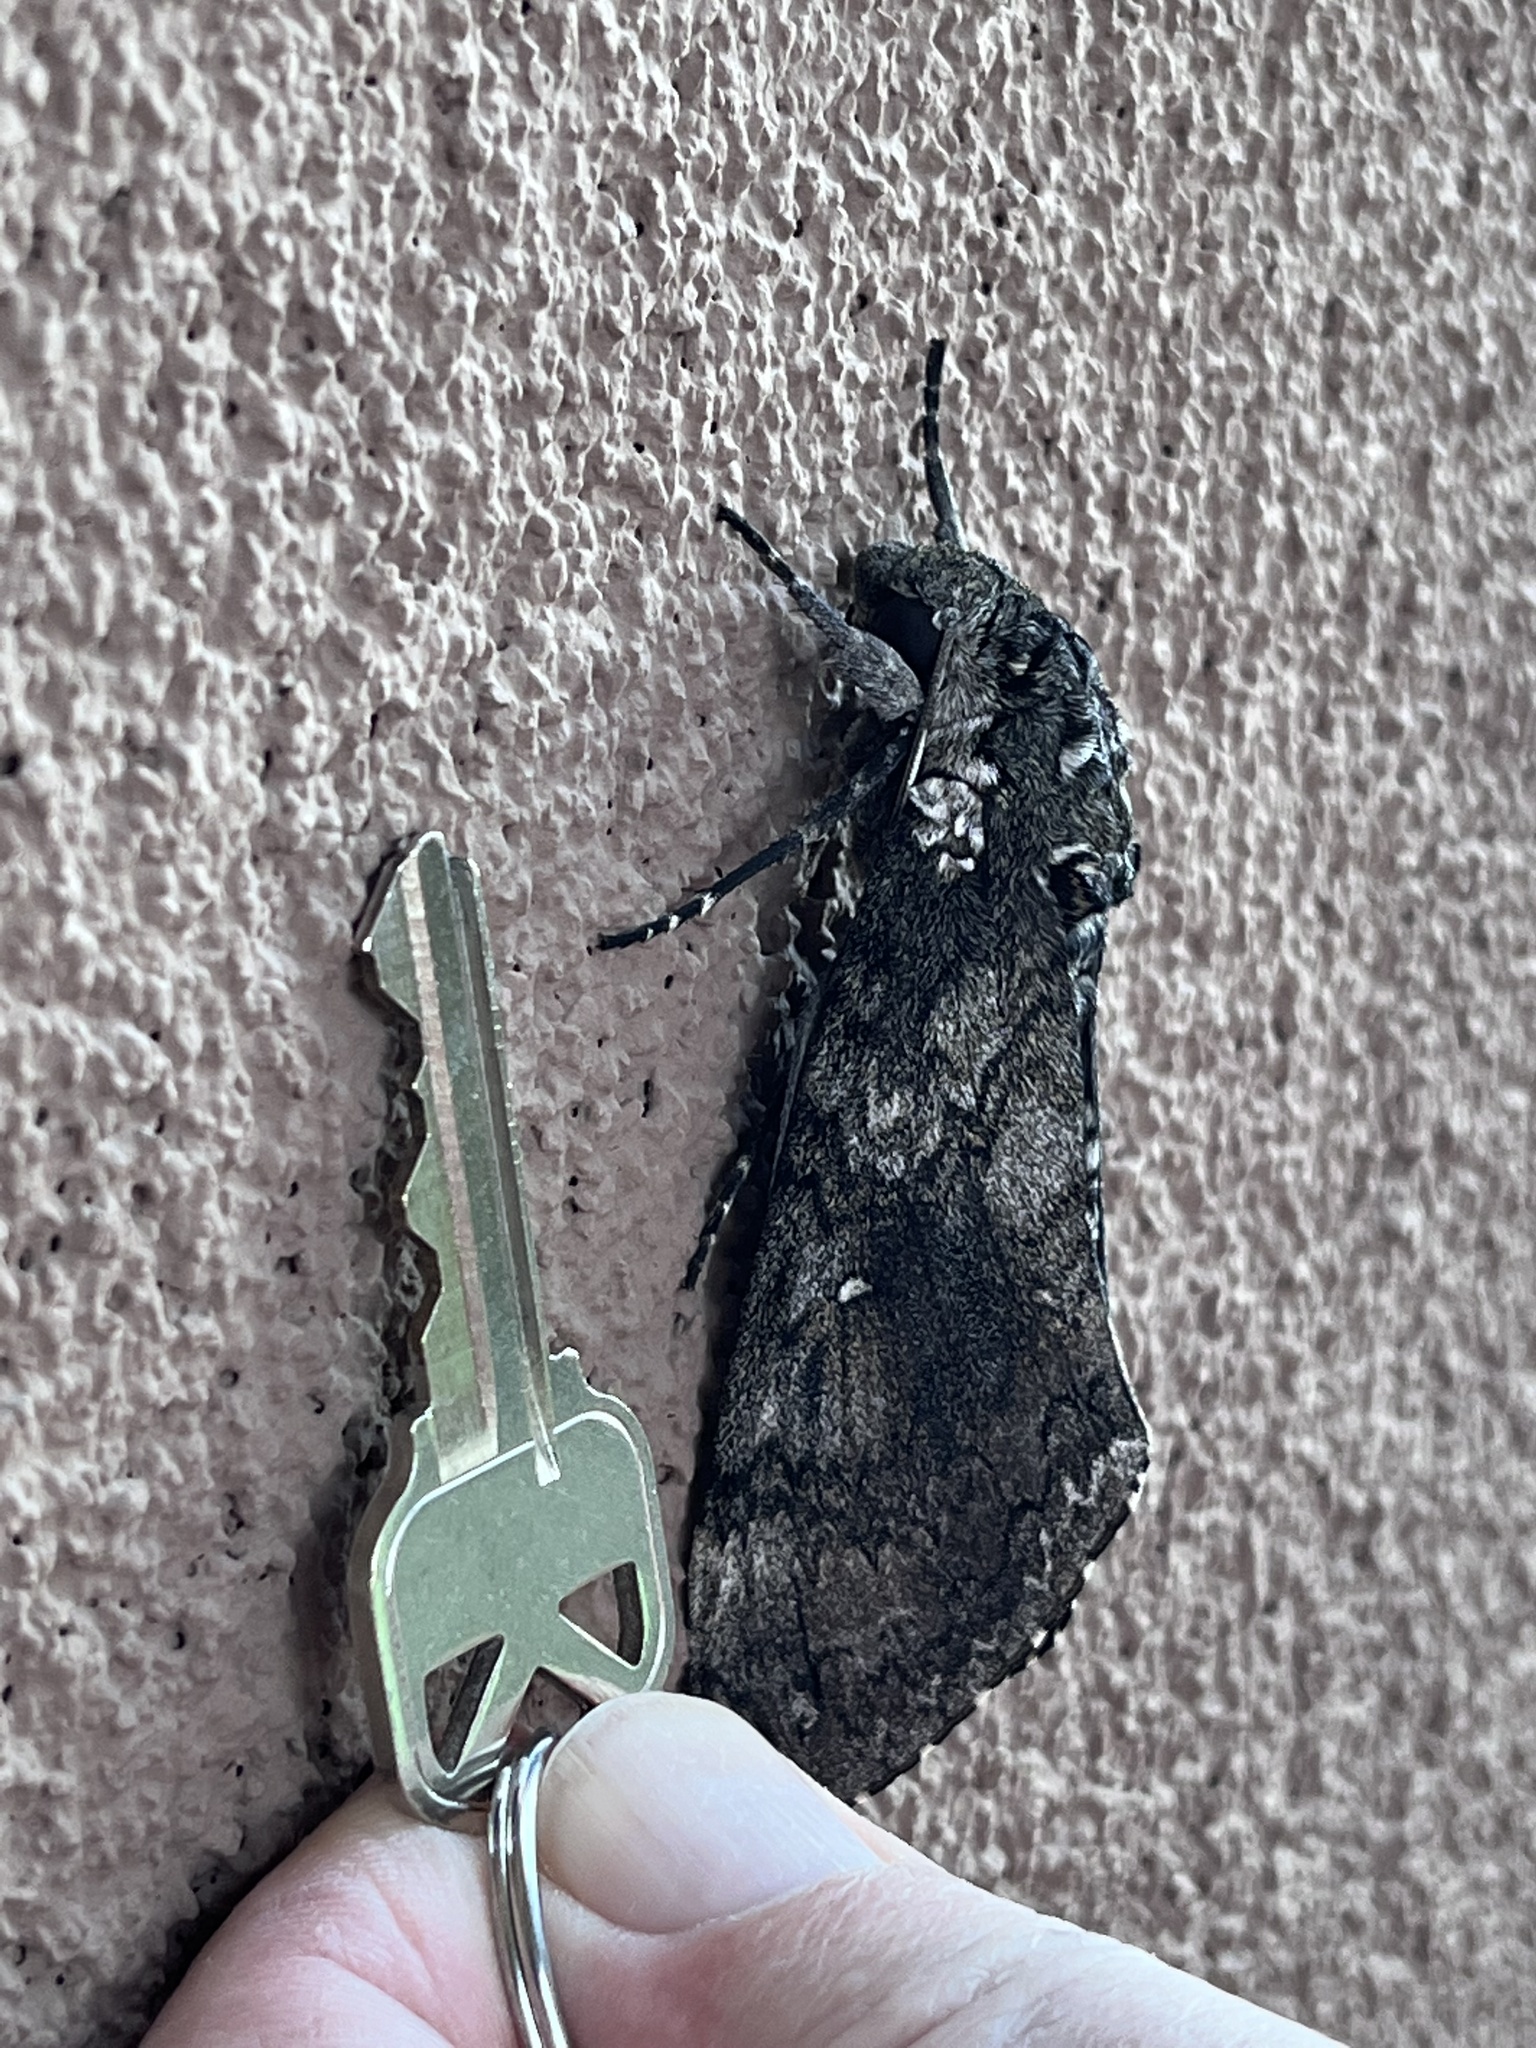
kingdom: Animalia
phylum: Arthropoda
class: Insecta
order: Lepidoptera
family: Sphingidae
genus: Manduca
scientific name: Manduca sexta
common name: Carolina sphinx
